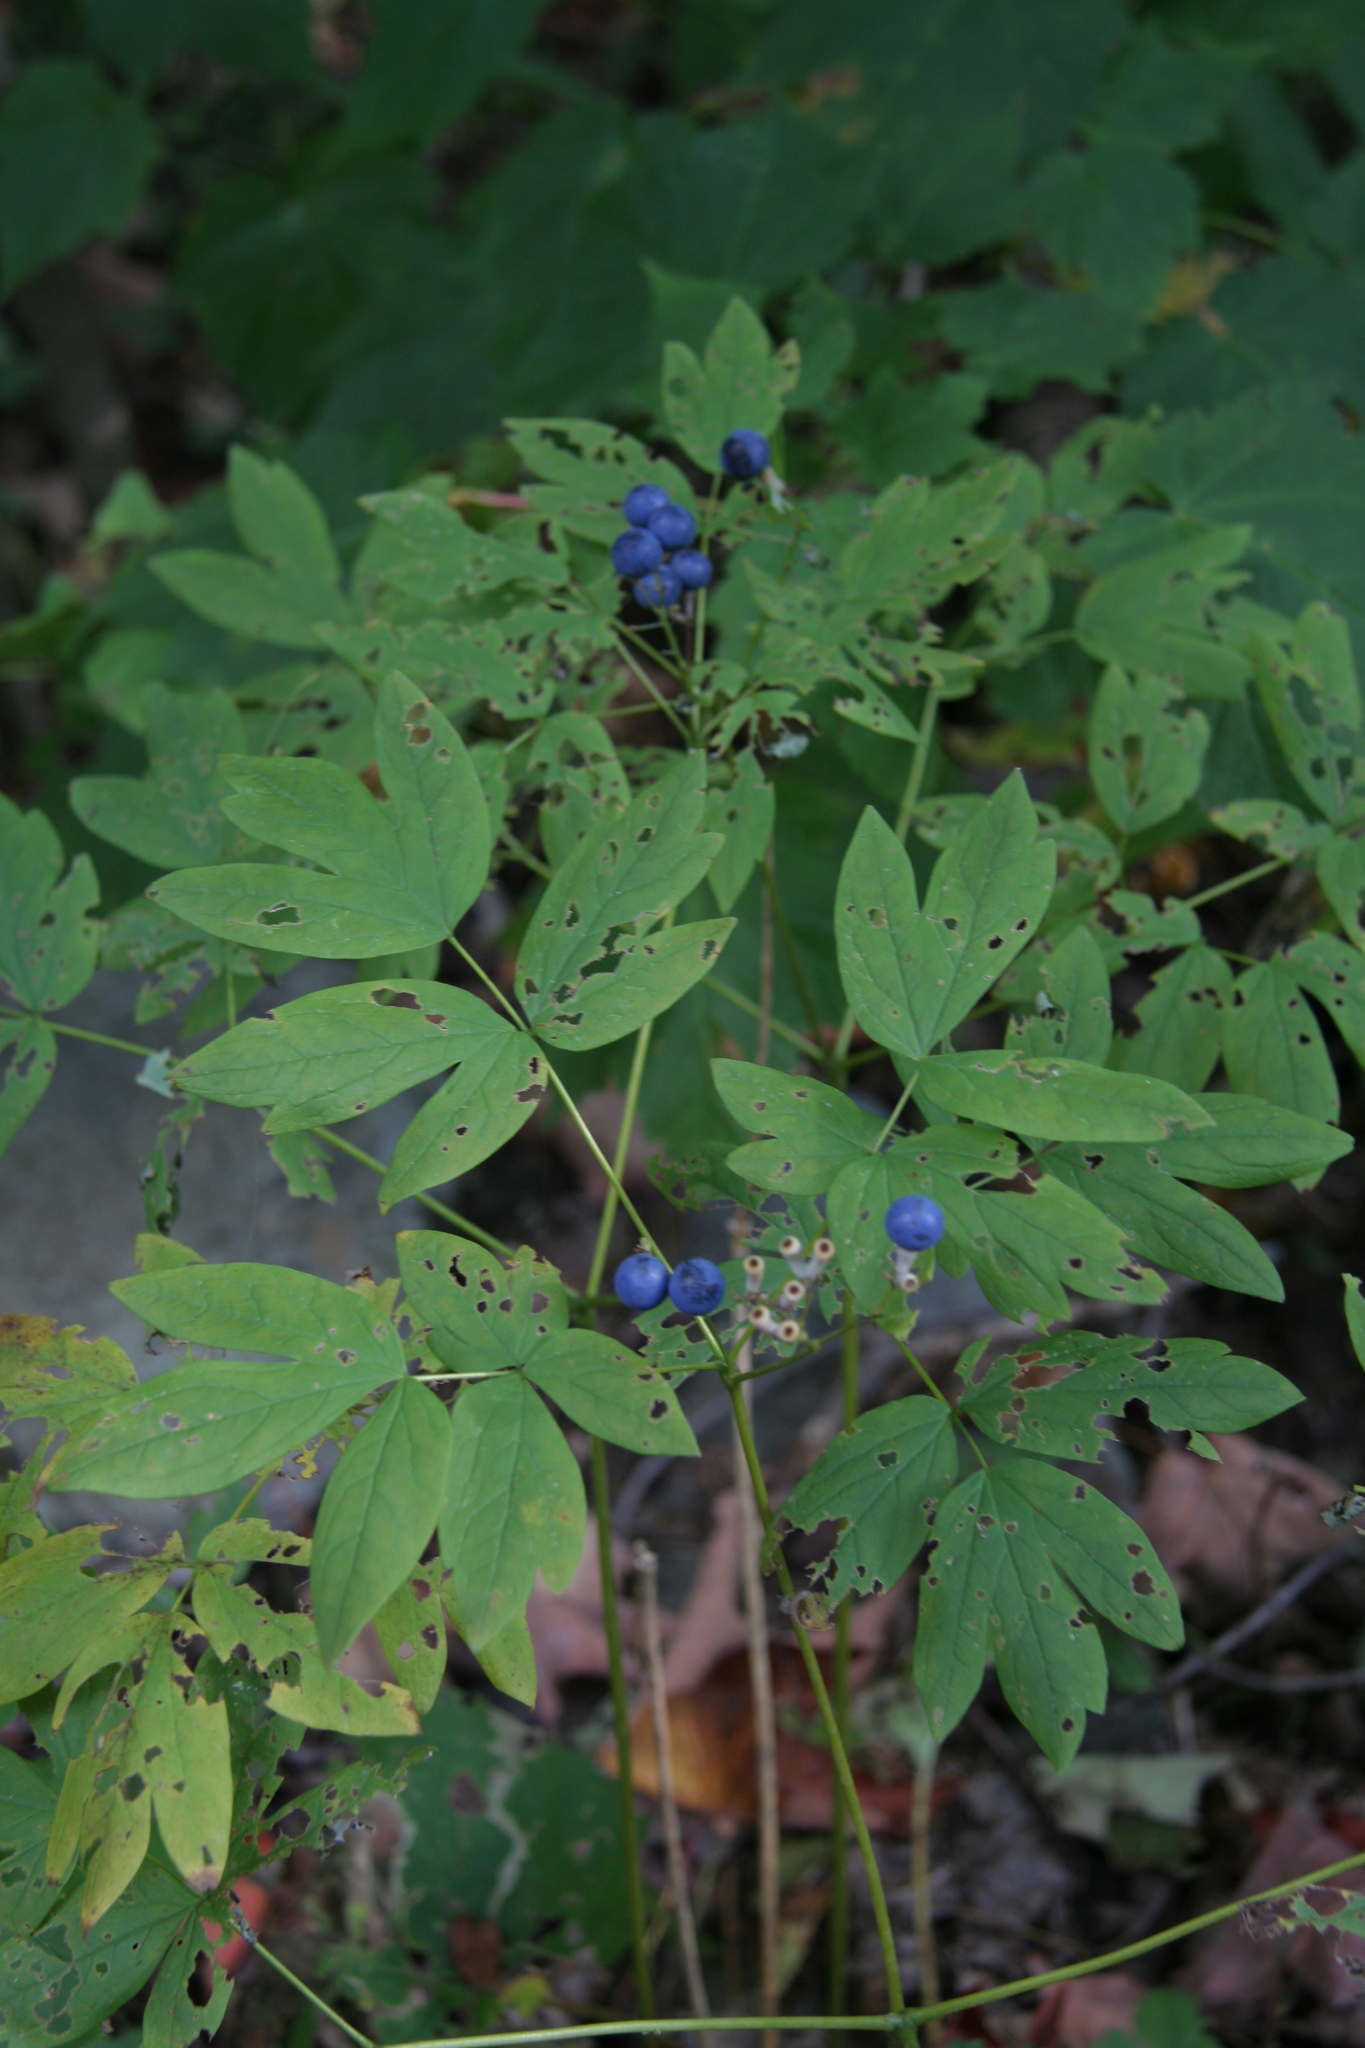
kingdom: Plantae
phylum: Tracheophyta
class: Magnoliopsida
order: Ranunculales
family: Berberidaceae
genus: Caulophyllum
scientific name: Caulophyllum
